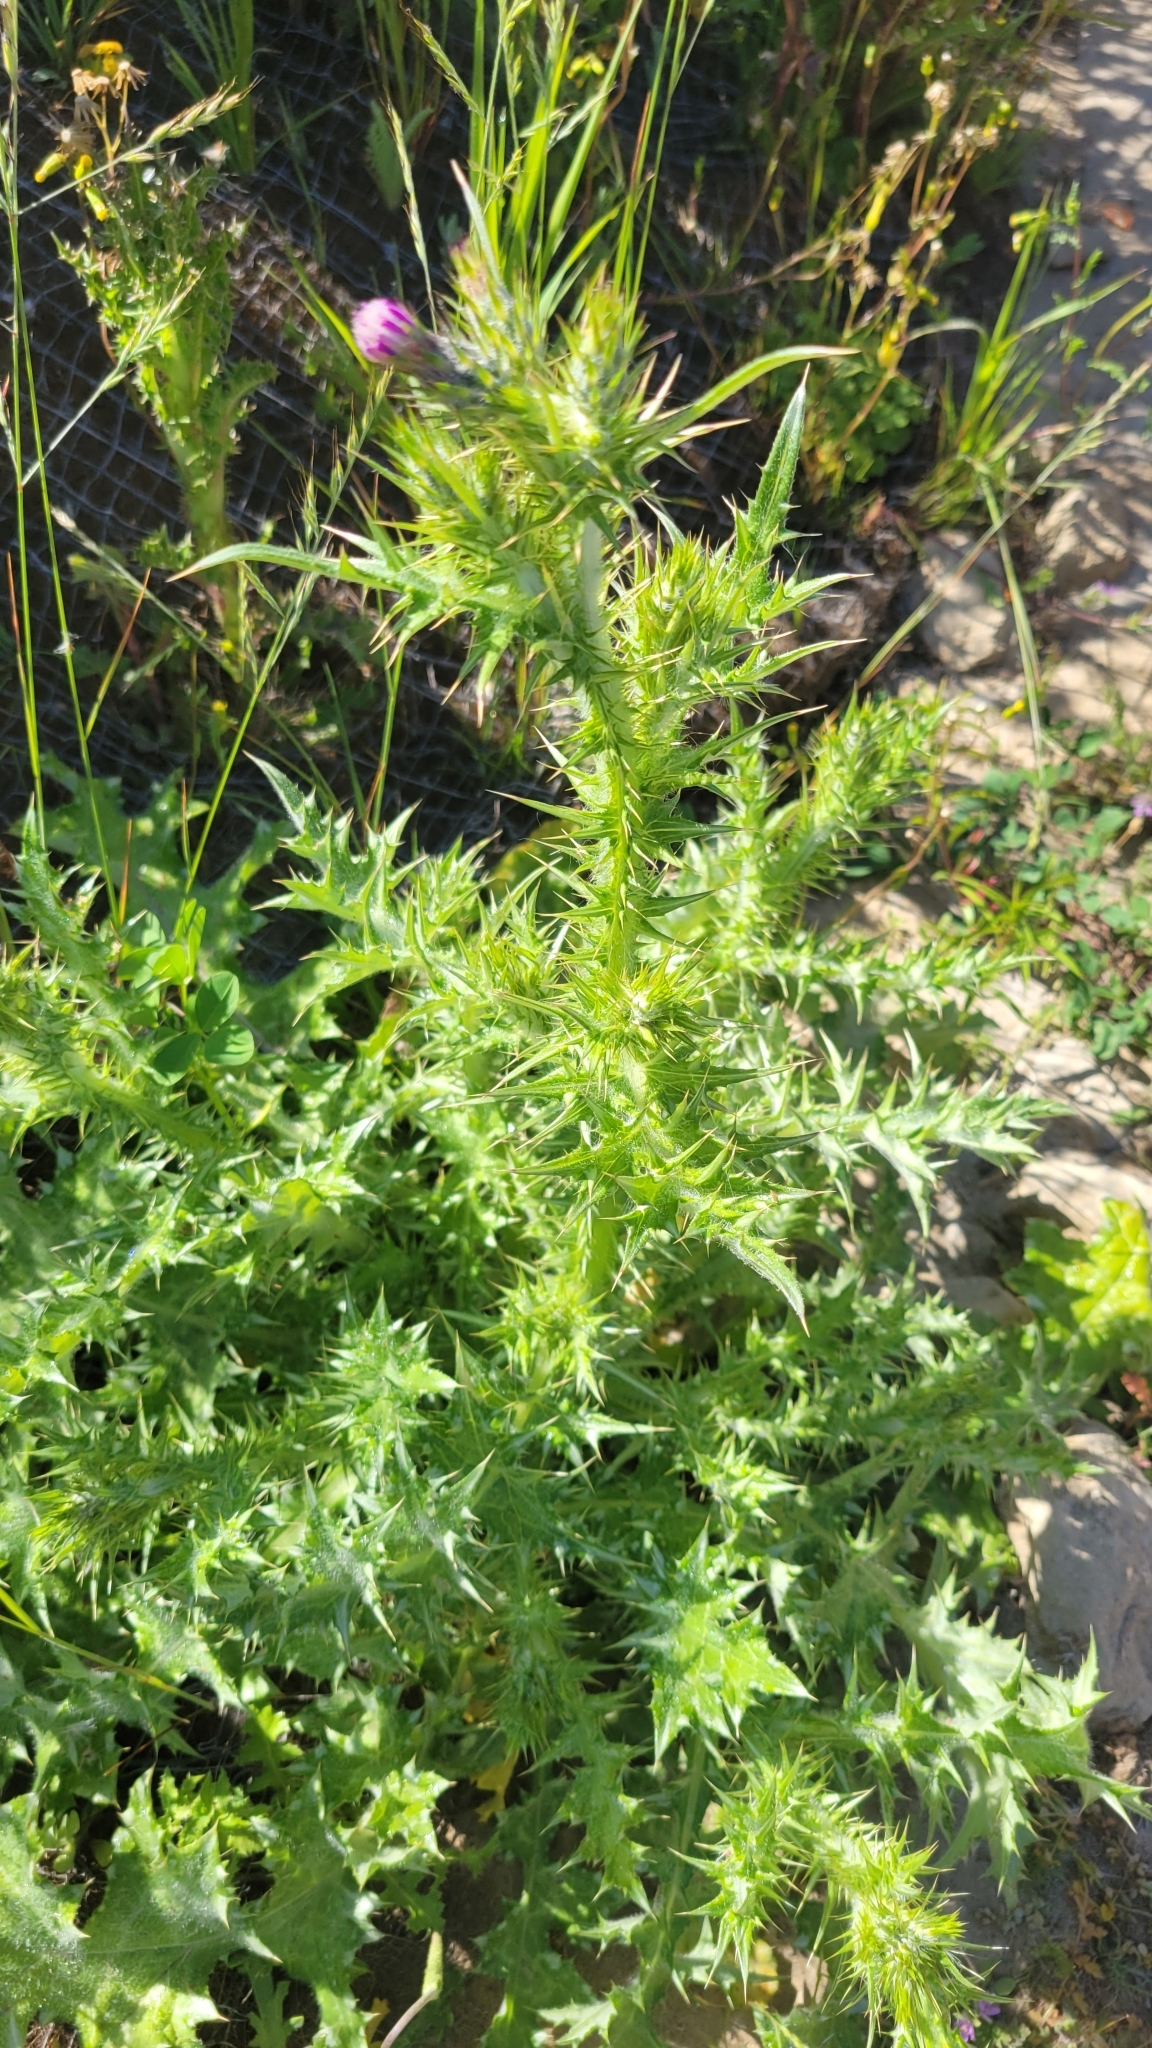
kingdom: Plantae
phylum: Tracheophyta
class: Magnoliopsida
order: Asterales
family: Asteraceae
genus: Carduus
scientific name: Carduus pycnocephalus
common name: Plymouth thistle
